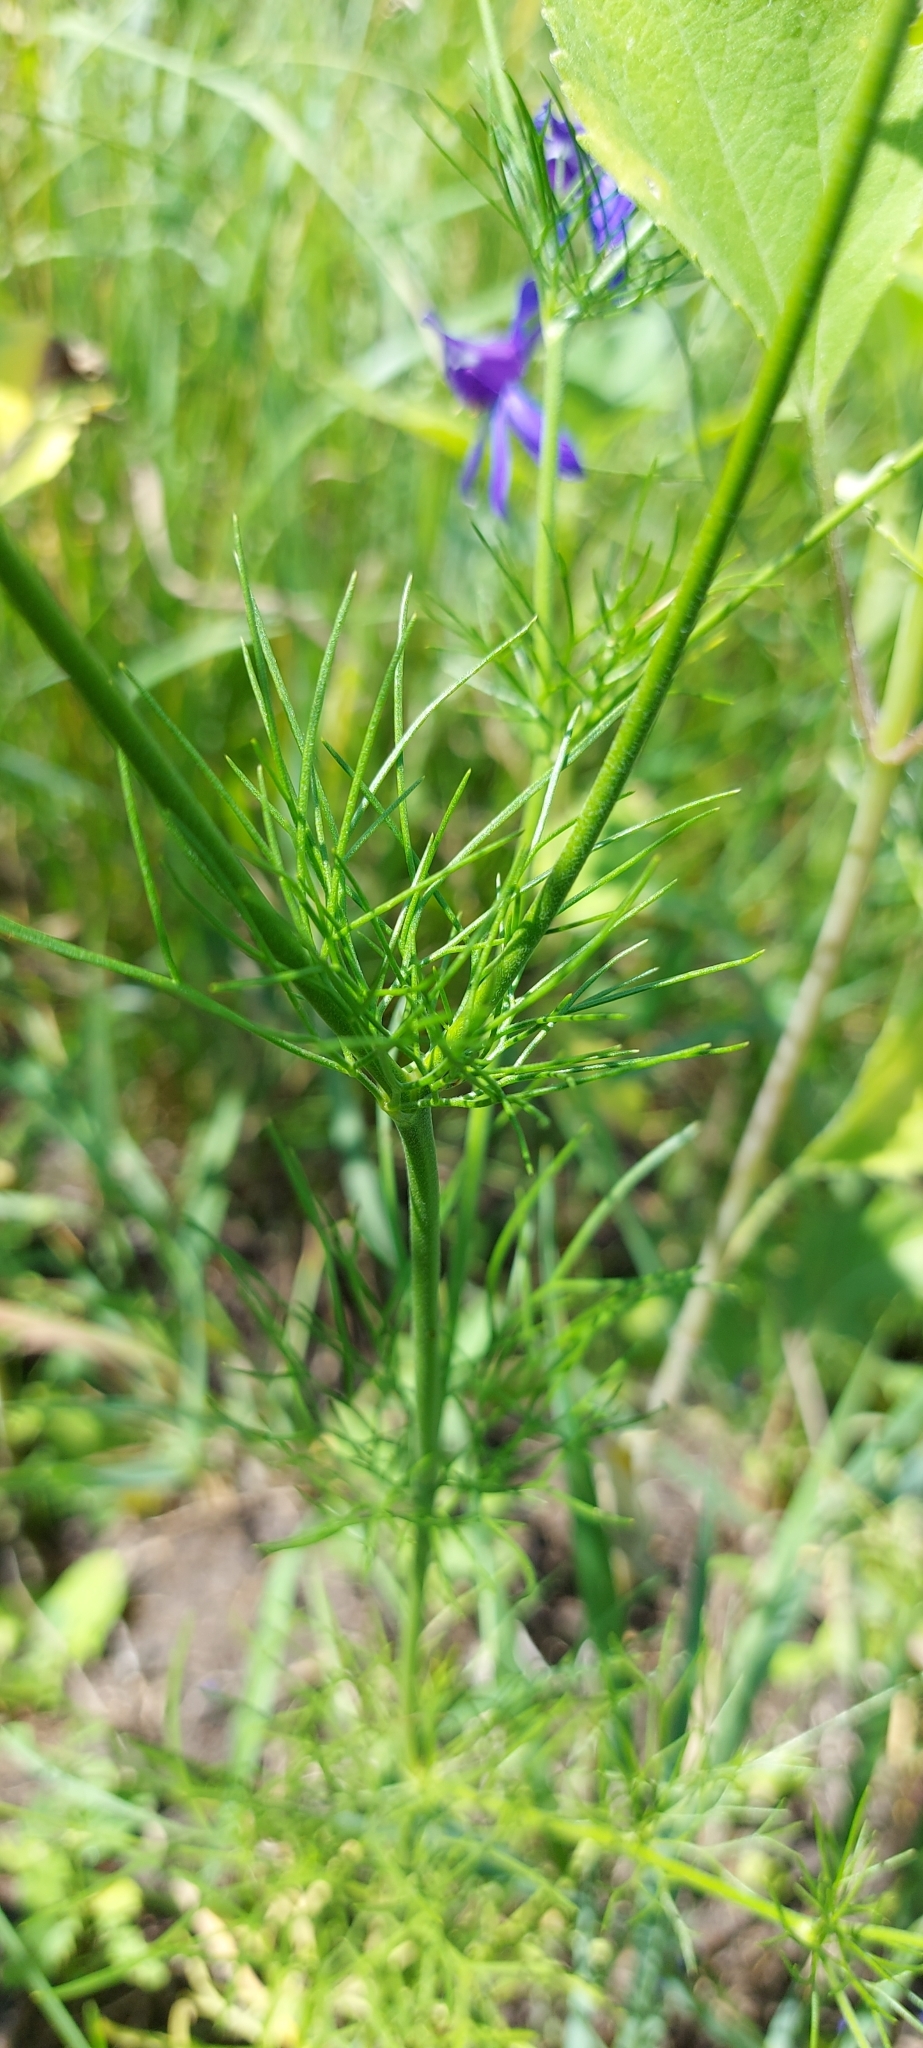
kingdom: Plantae
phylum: Tracheophyta
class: Magnoliopsida
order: Ranunculales
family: Ranunculaceae
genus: Delphinium
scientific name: Delphinium consolida
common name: Branching larkspur
